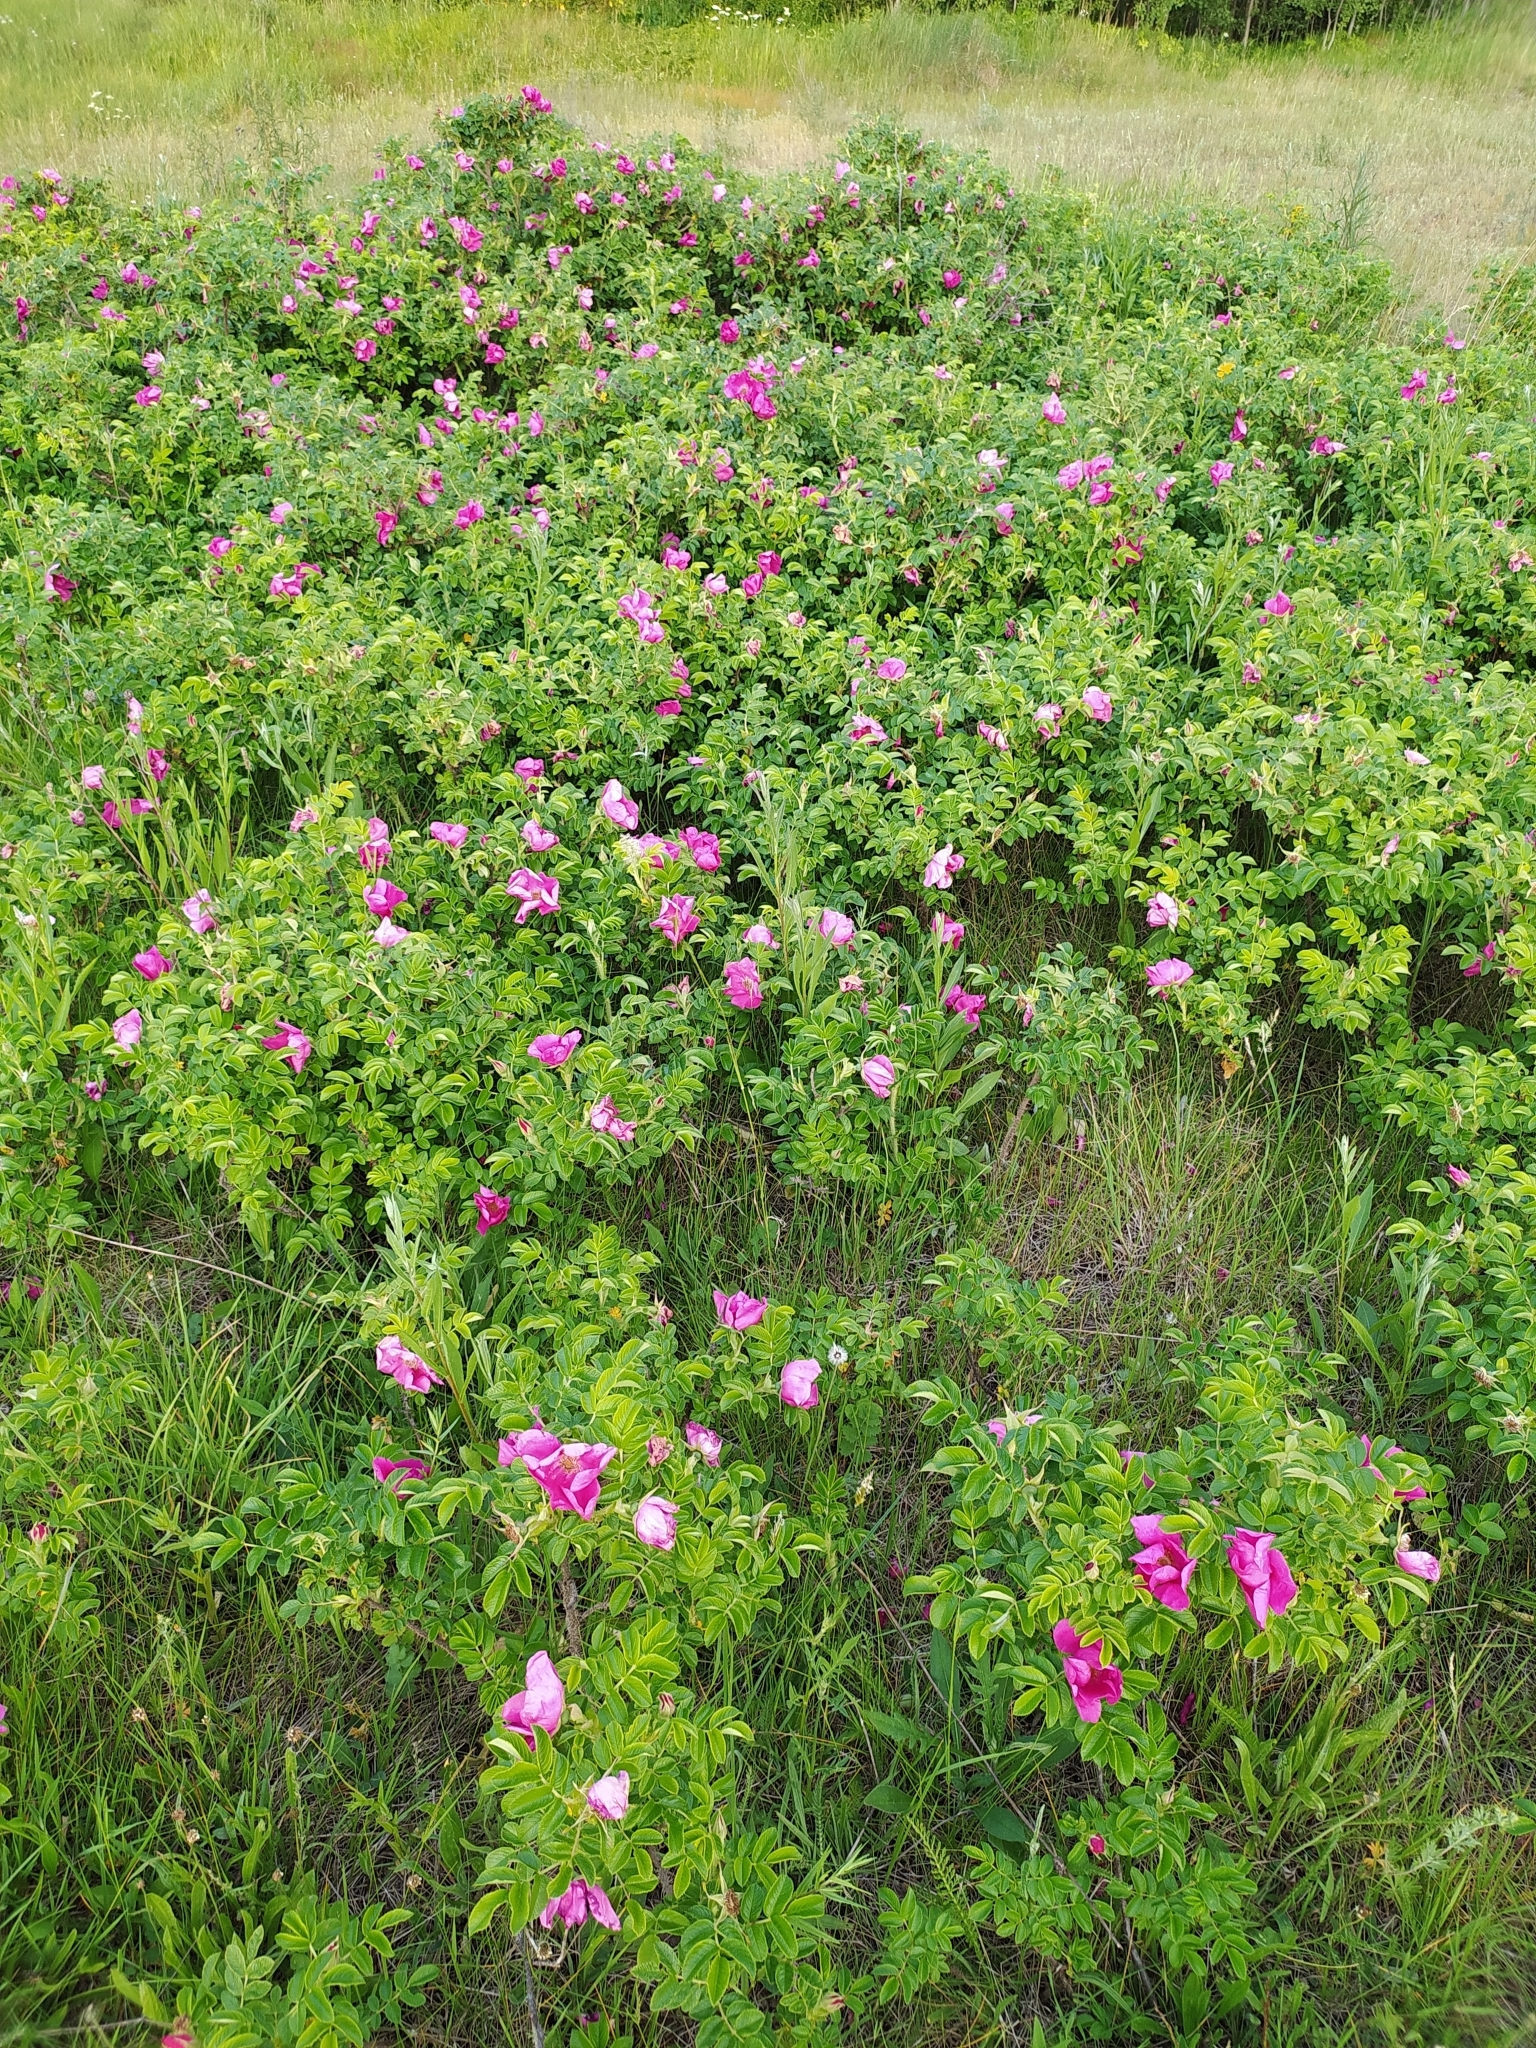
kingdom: Plantae
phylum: Tracheophyta
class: Magnoliopsida
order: Rosales
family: Rosaceae
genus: Rosa
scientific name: Rosa rugosa
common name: Japanese rose
